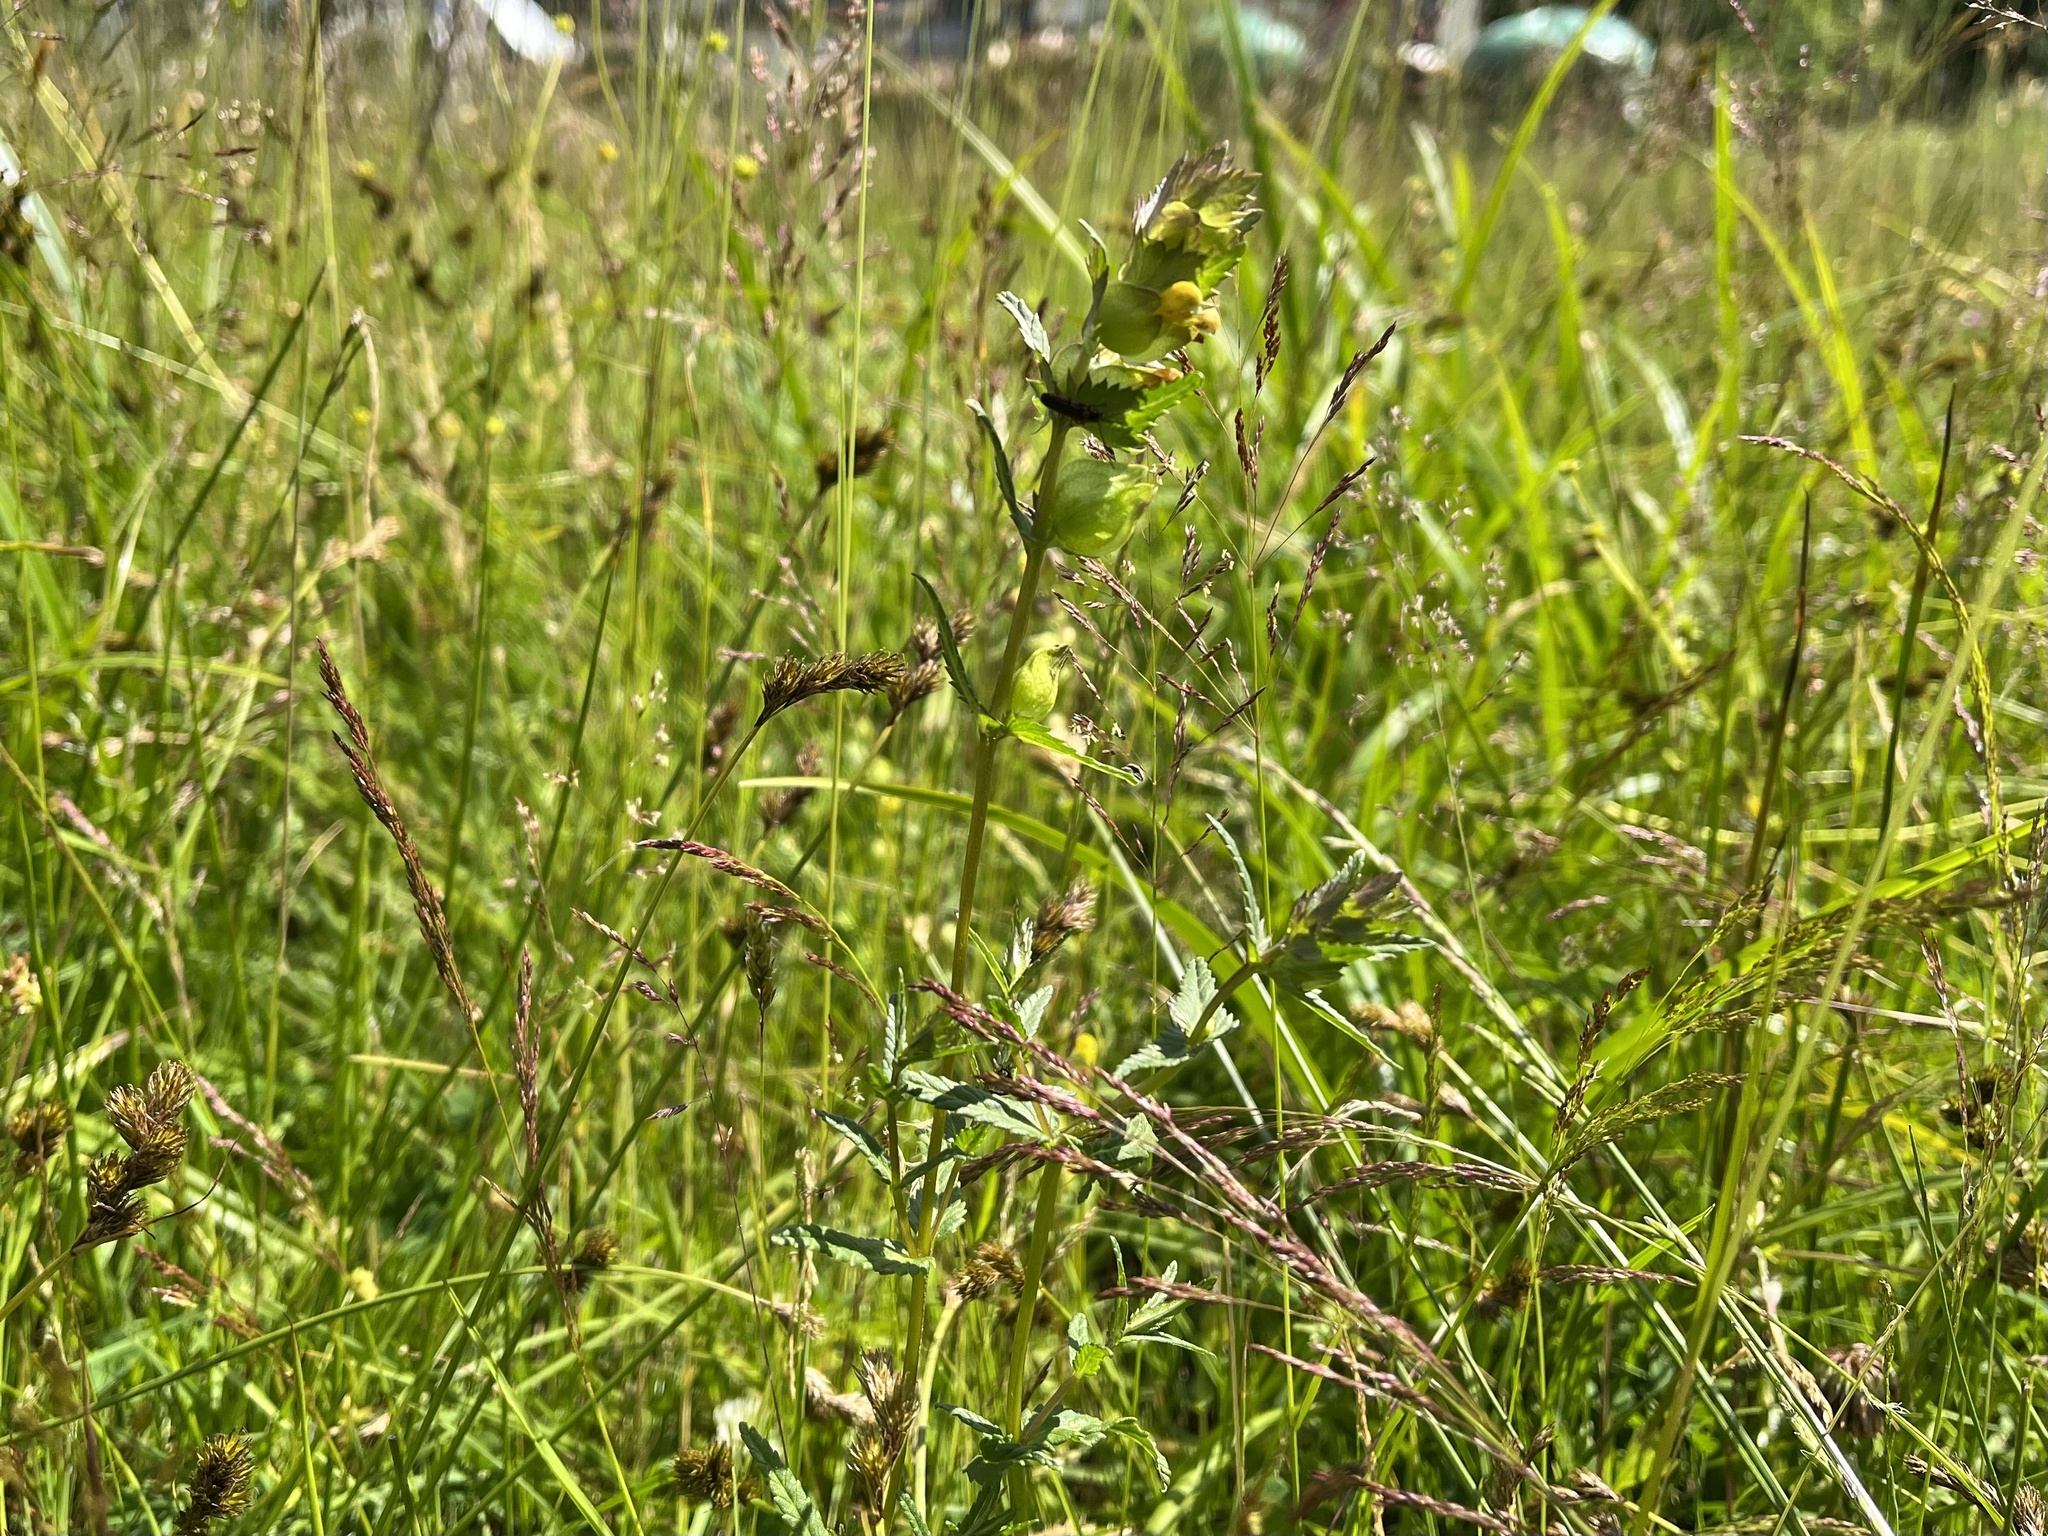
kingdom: Plantae
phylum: Tracheophyta
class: Magnoliopsida
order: Lamiales
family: Orobanchaceae
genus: Rhinanthus
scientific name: Rhinanthus minor
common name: Yellow-rattle
